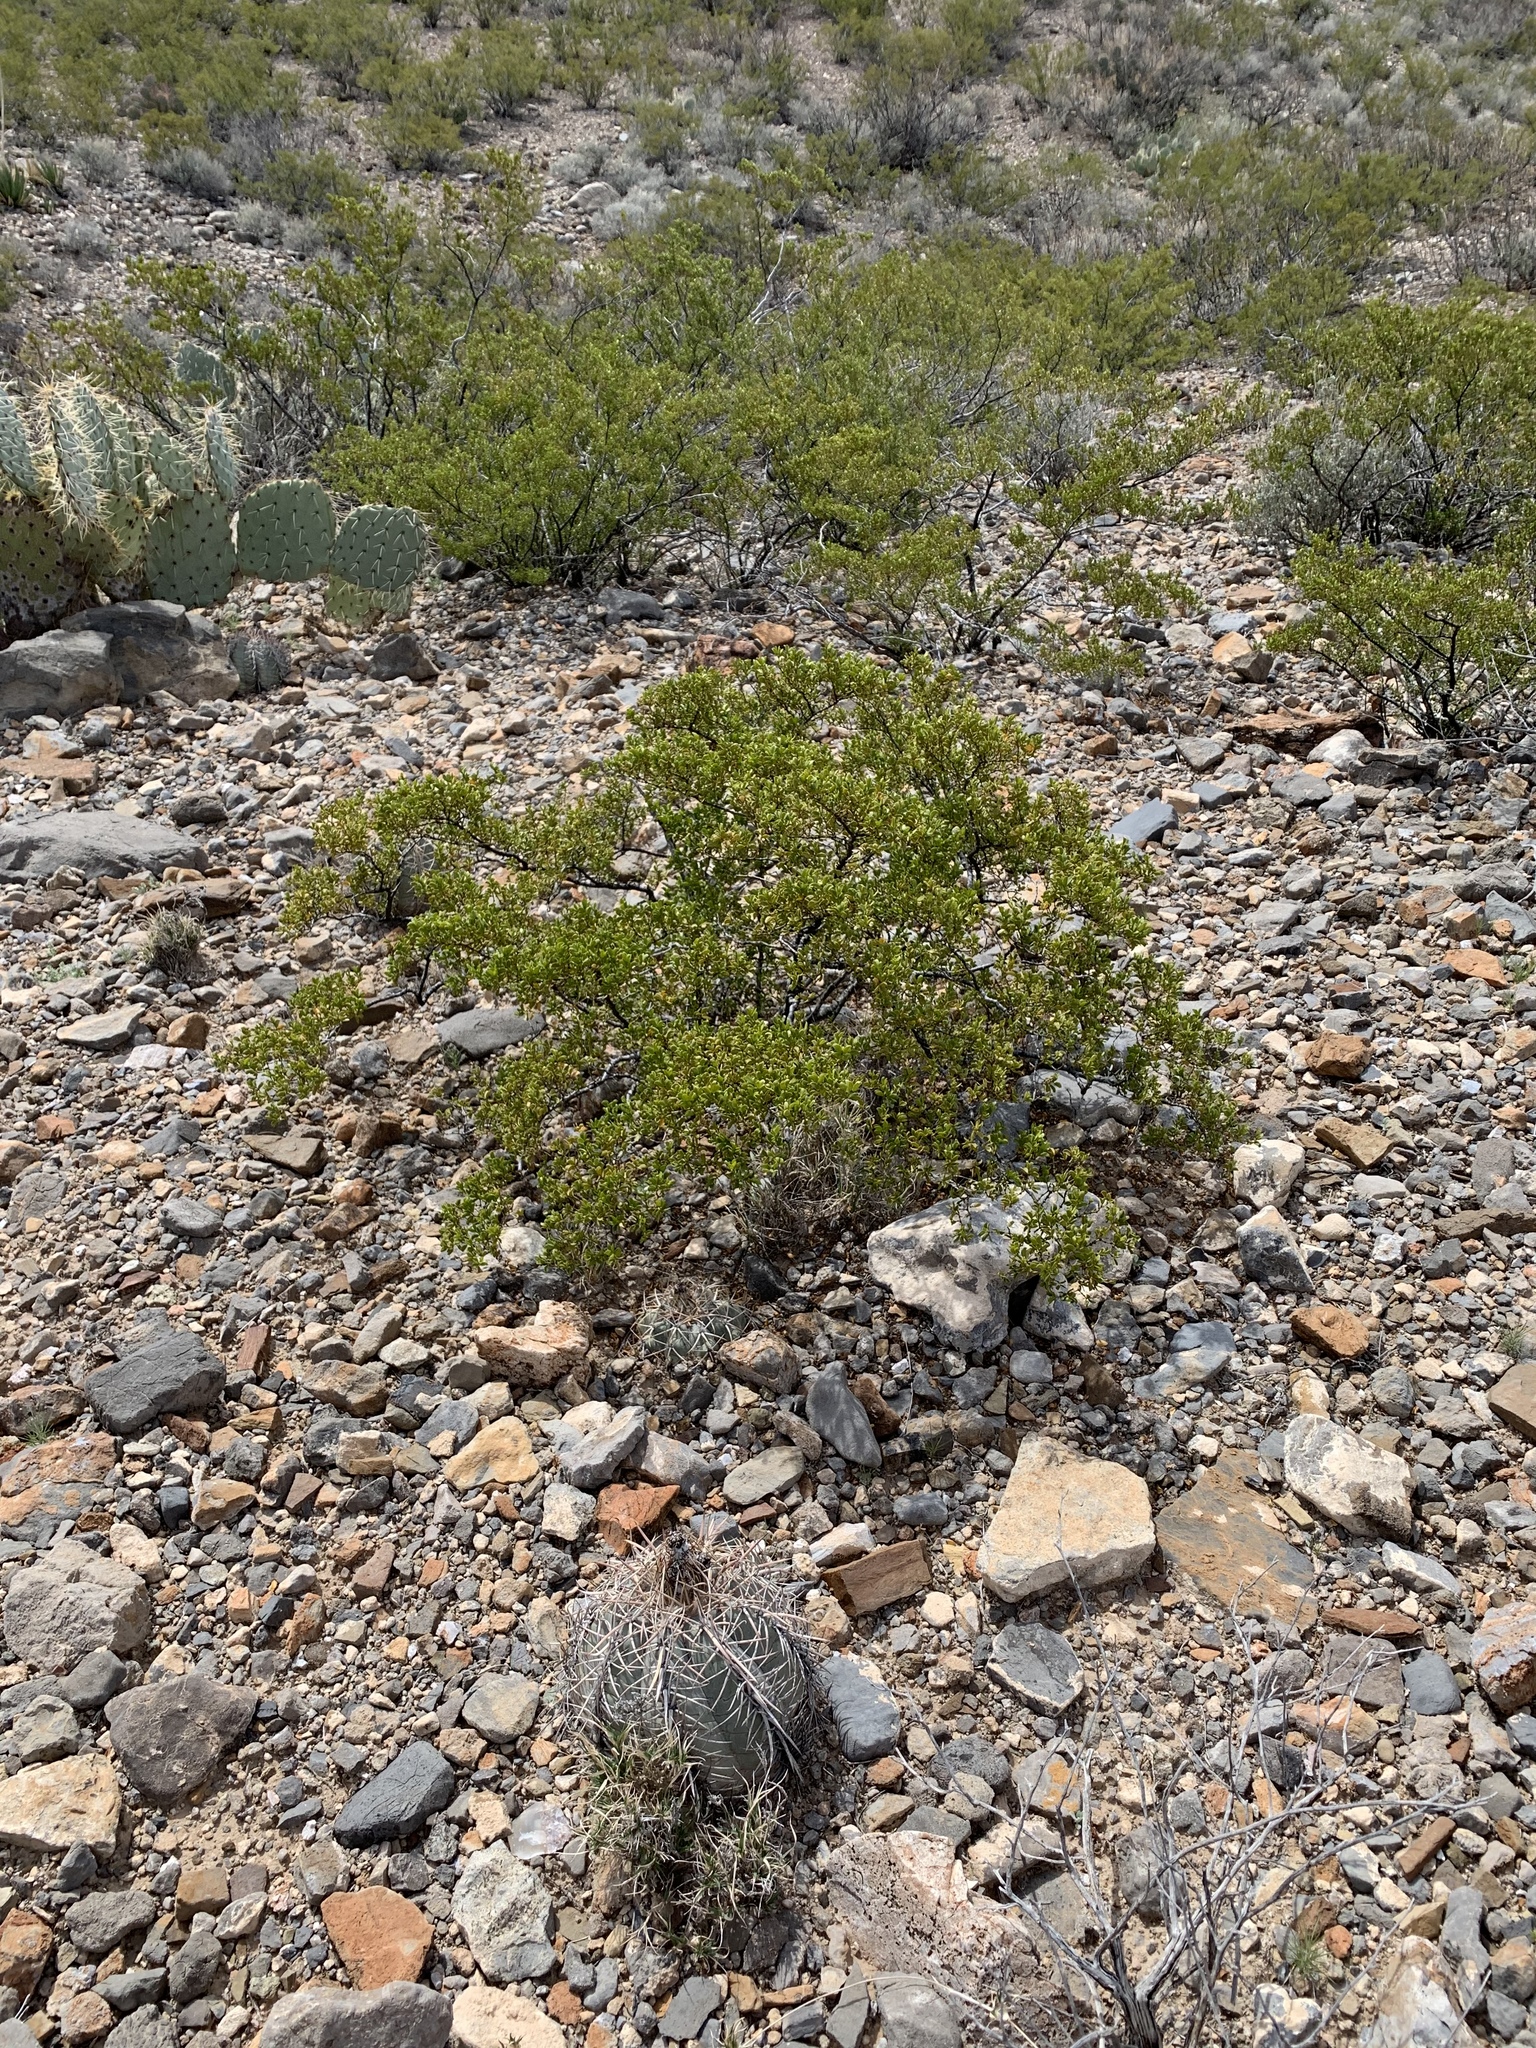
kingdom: Plantae
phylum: Tracheophyta
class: Magnoliopsida
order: Zygophyllales
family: Zygophyllaceae
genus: Larrea
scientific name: Larrea tridentata
